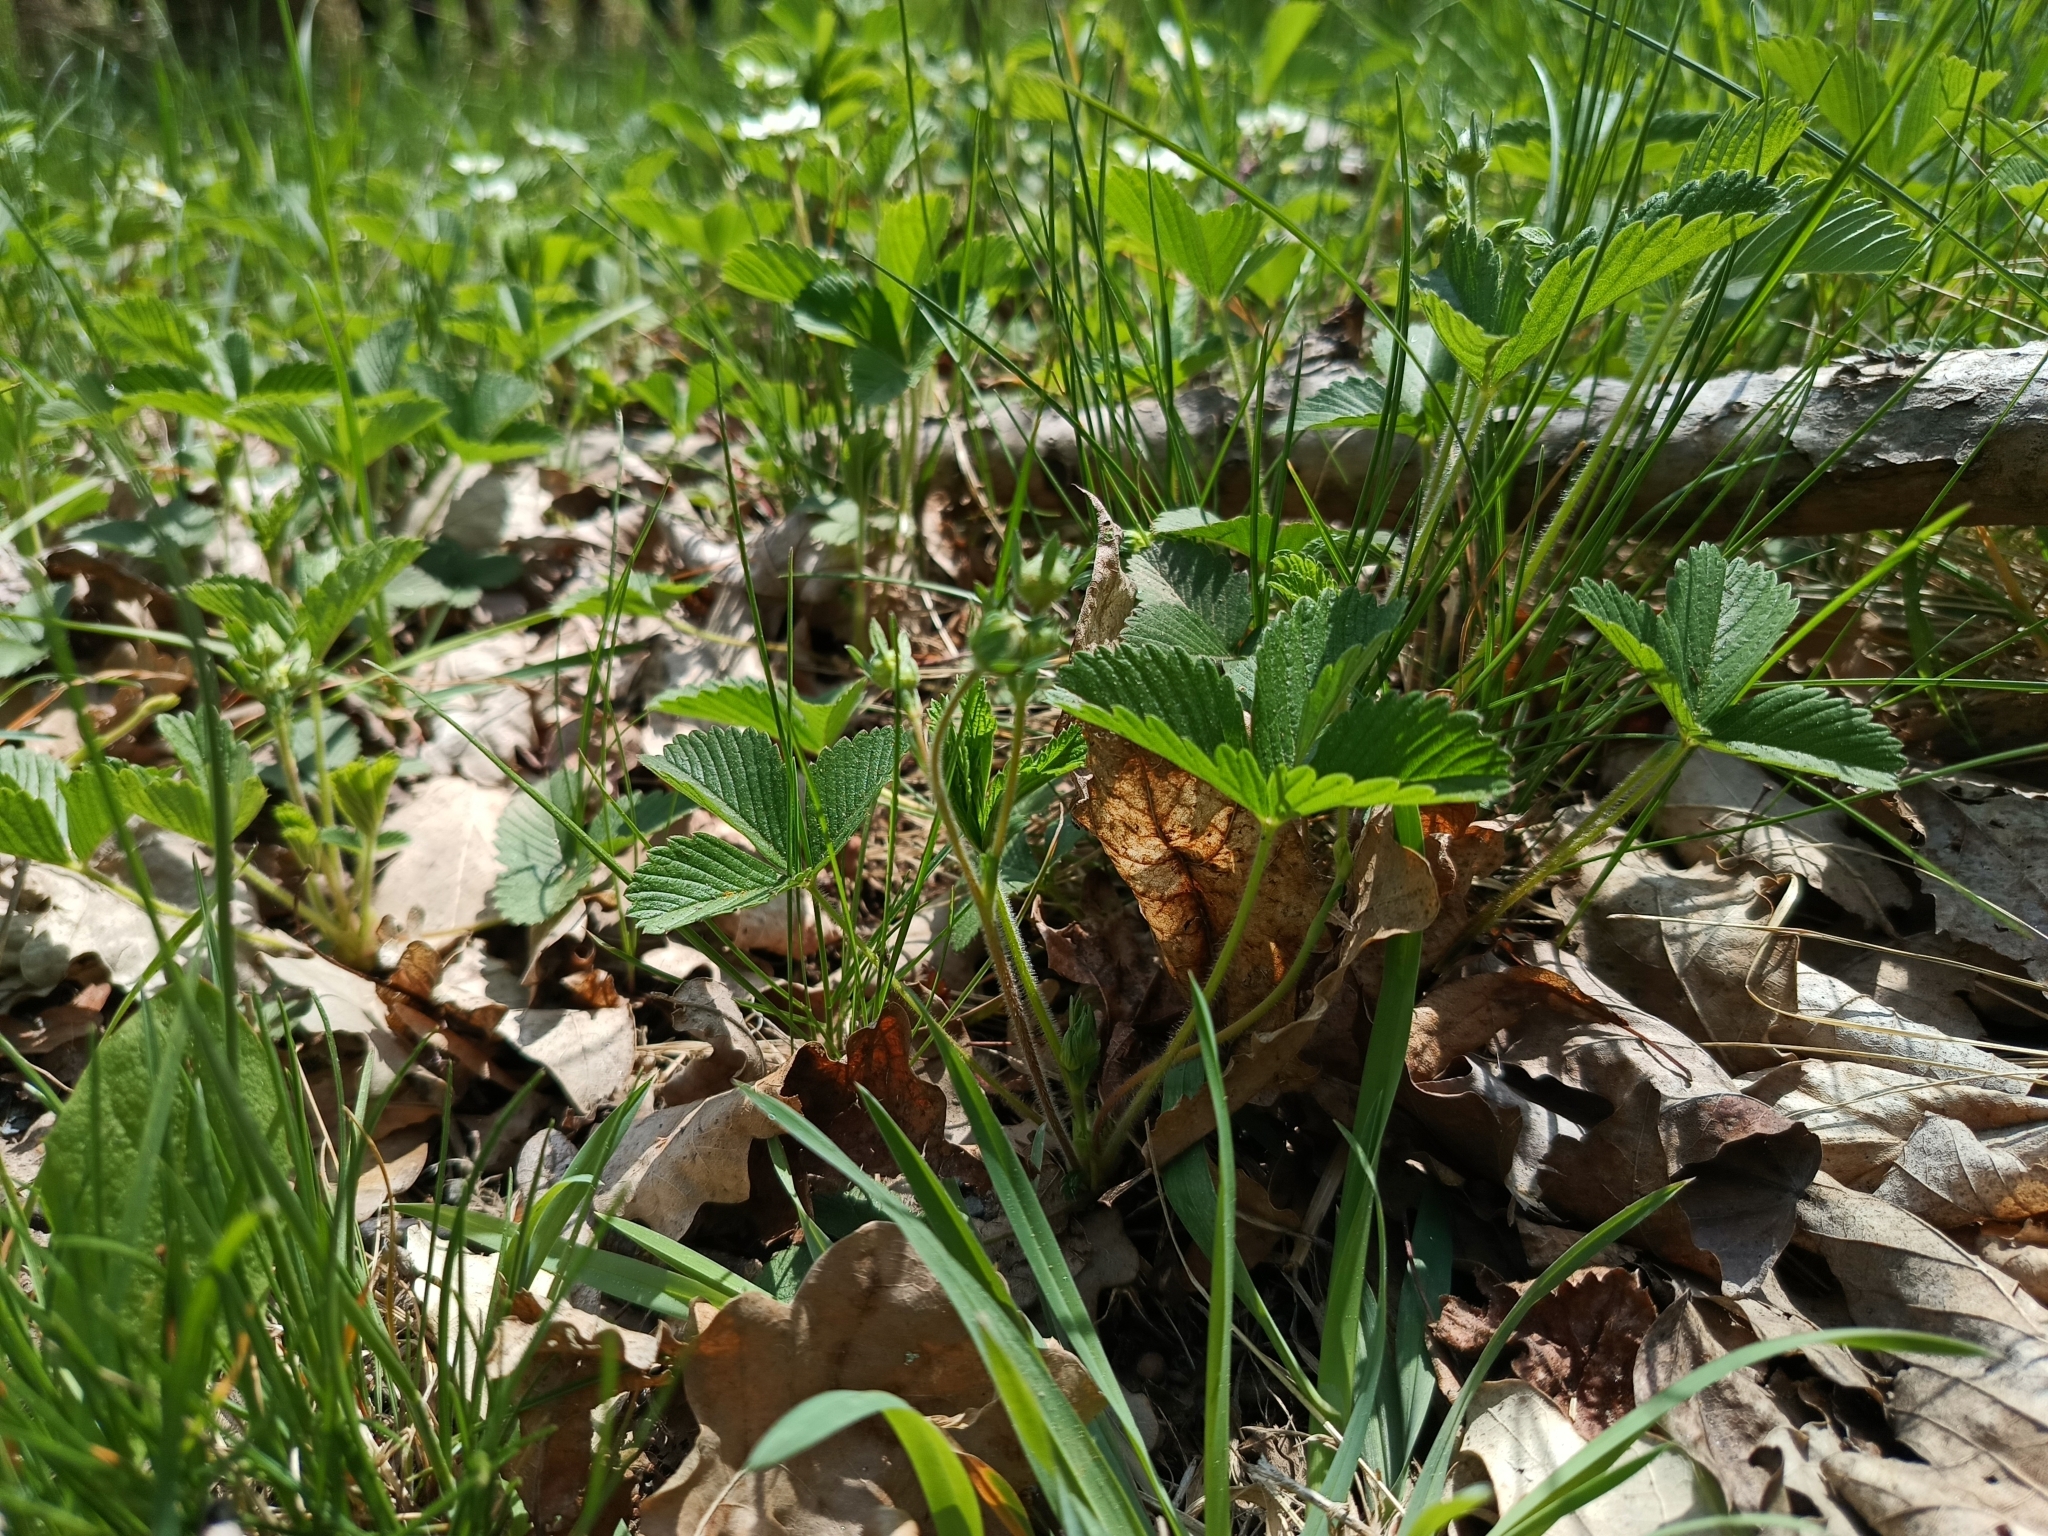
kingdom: Plantae
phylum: Tracheophyta
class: Magnoliopsida
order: Rosales
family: Rosaceae
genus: Fragaria
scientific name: Fragaria viridis
